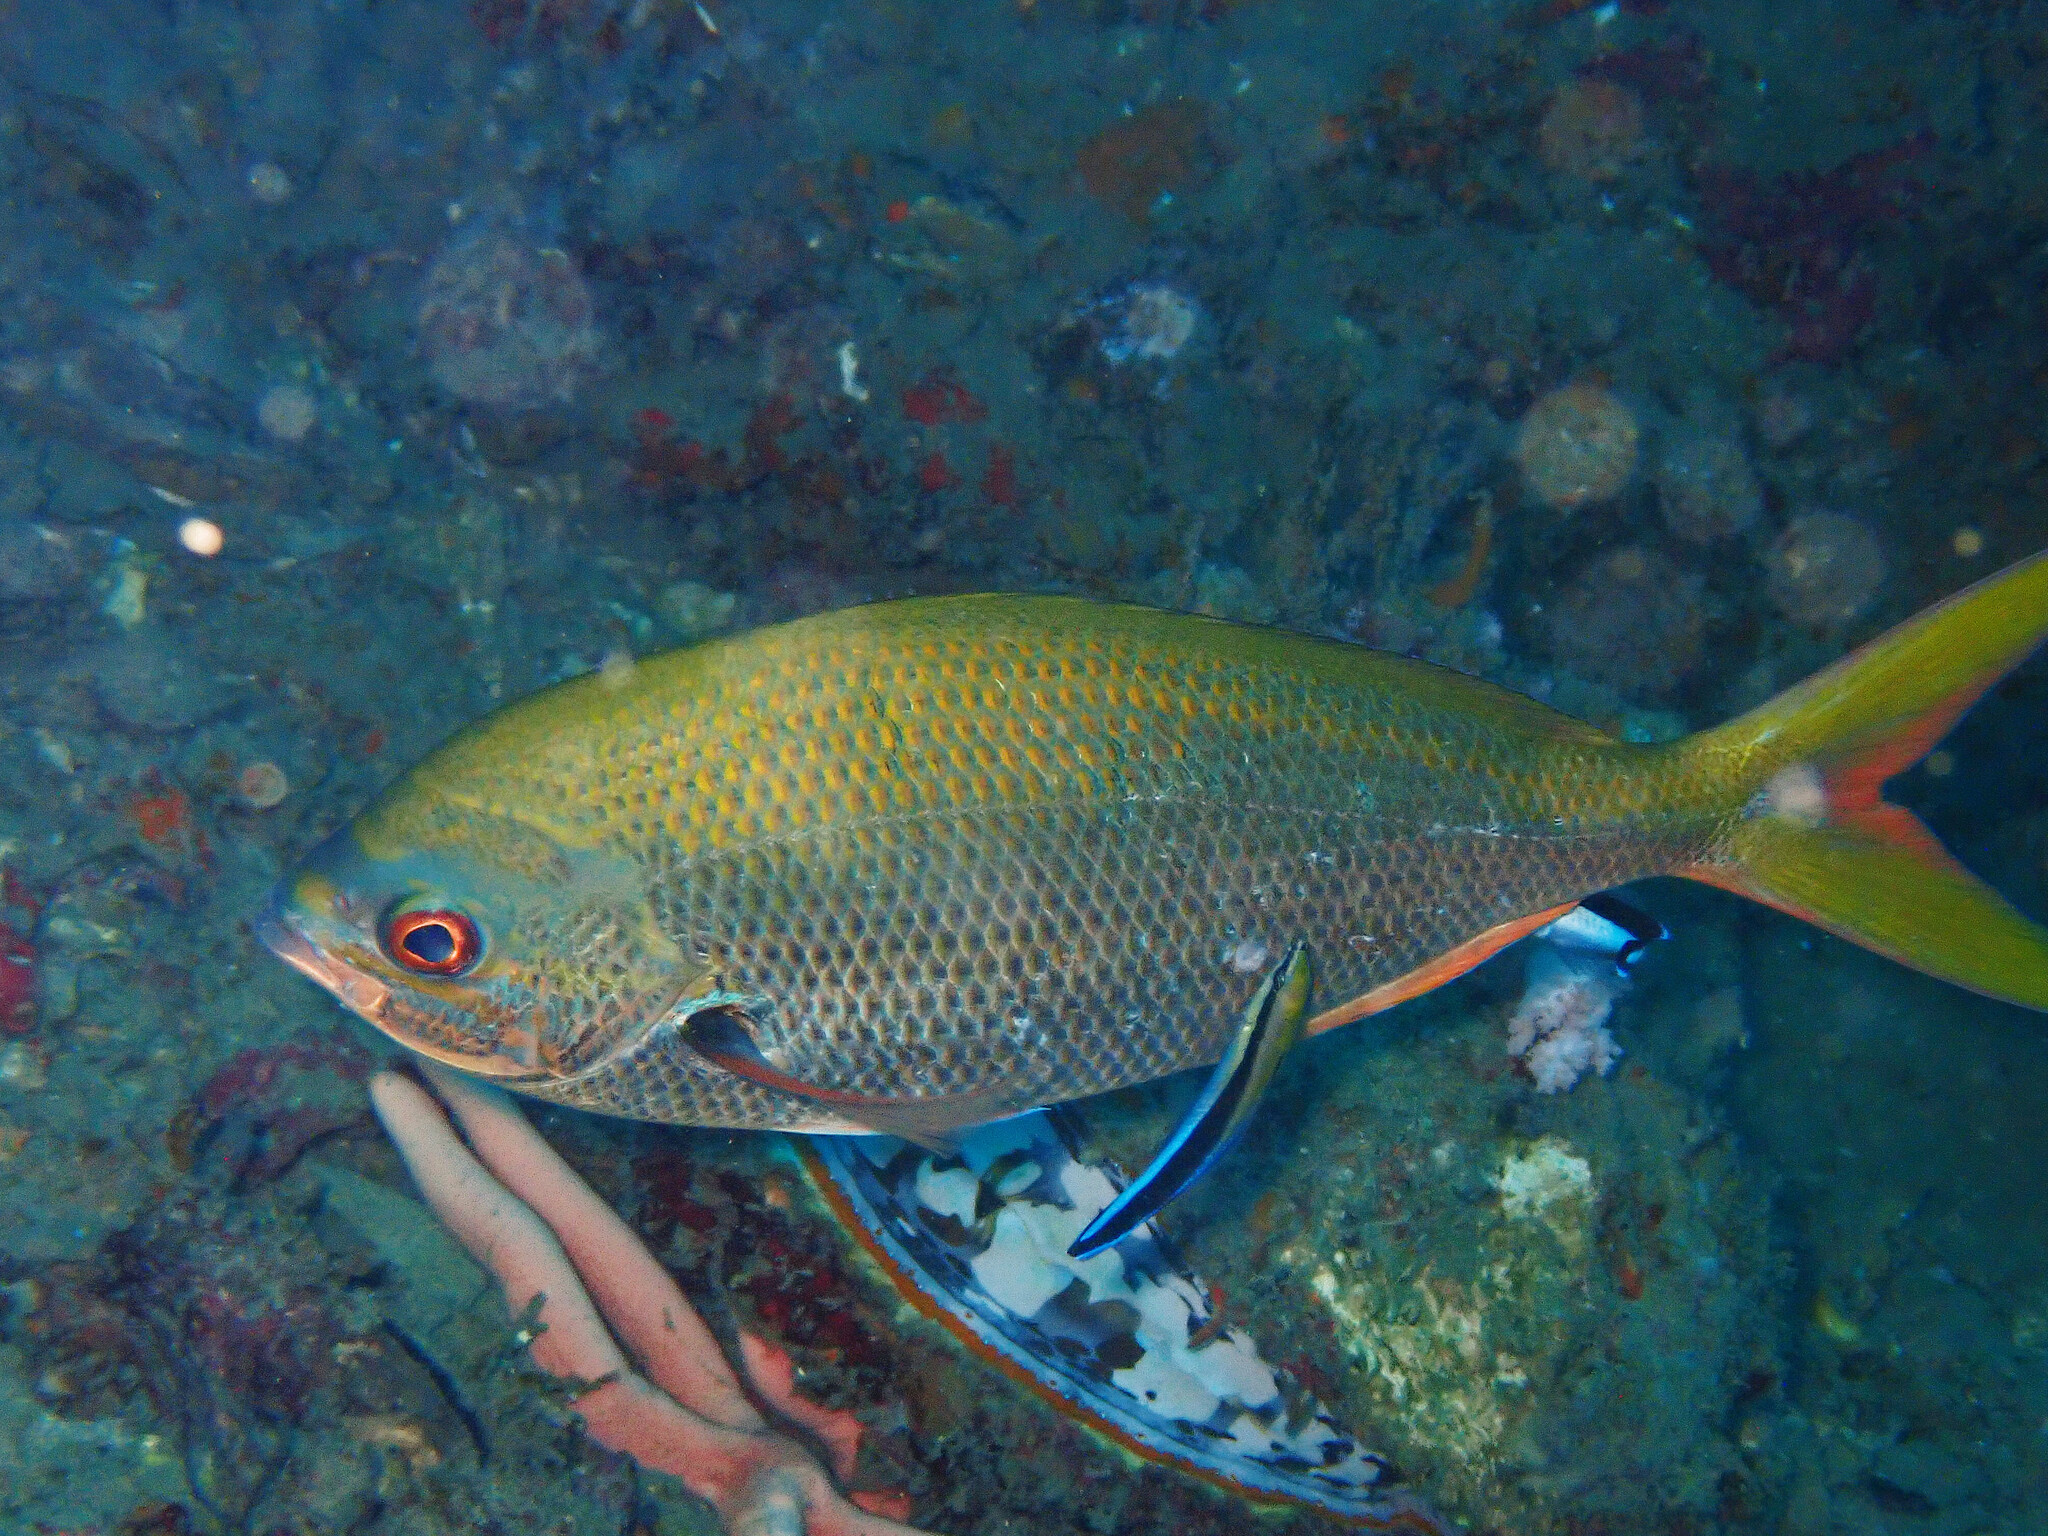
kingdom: Animalia
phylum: Chordata
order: Perciformes
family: Caesionidae
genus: Caesio
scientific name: Caesio cuning
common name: Red-bellied fusilier
